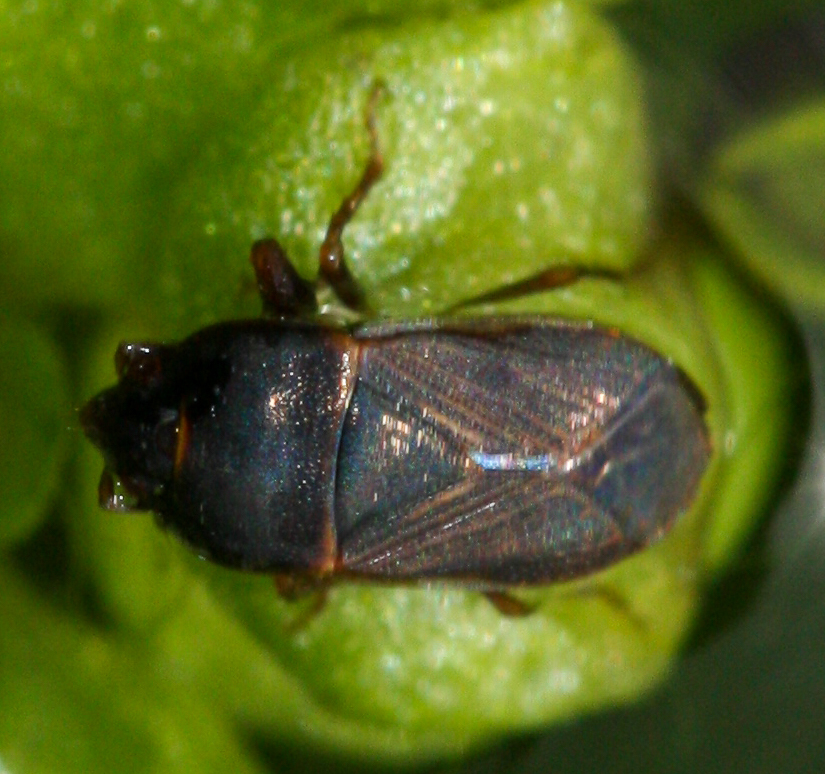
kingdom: Animalia
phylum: Arthropoda
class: Insecta
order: Hemiptera
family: Rhyparochromidae
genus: Cryphula
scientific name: Cryphula nitens
